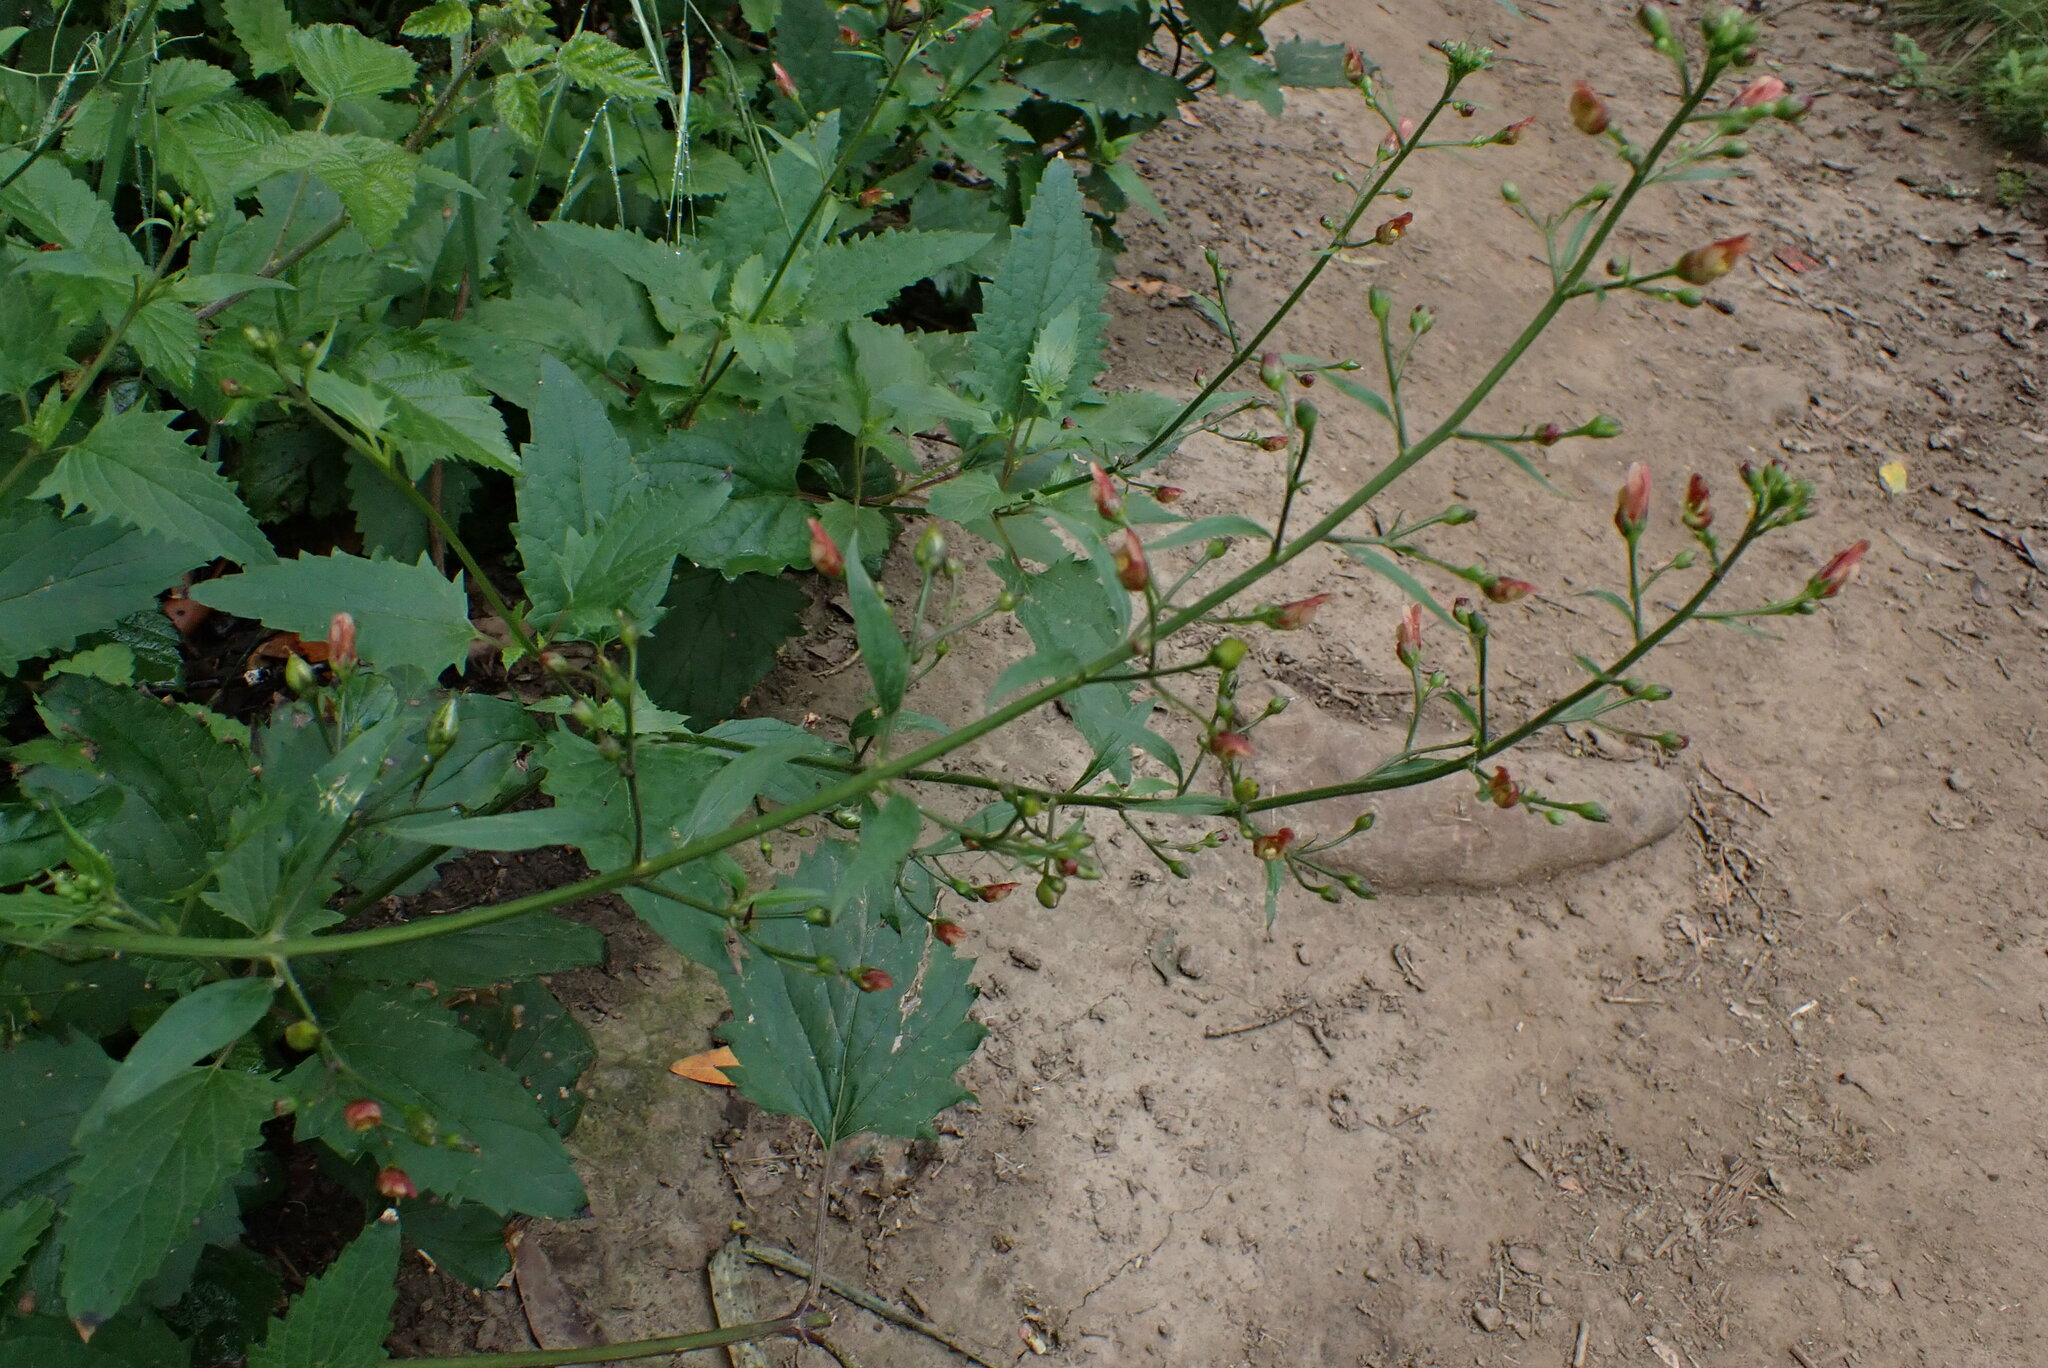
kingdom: Plantae
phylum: Tracheophyta
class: Magnoliopsida
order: Lamiales
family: Scrophulariaceae
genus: Scrophularia
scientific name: Scrophularia californica
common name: California figwort
